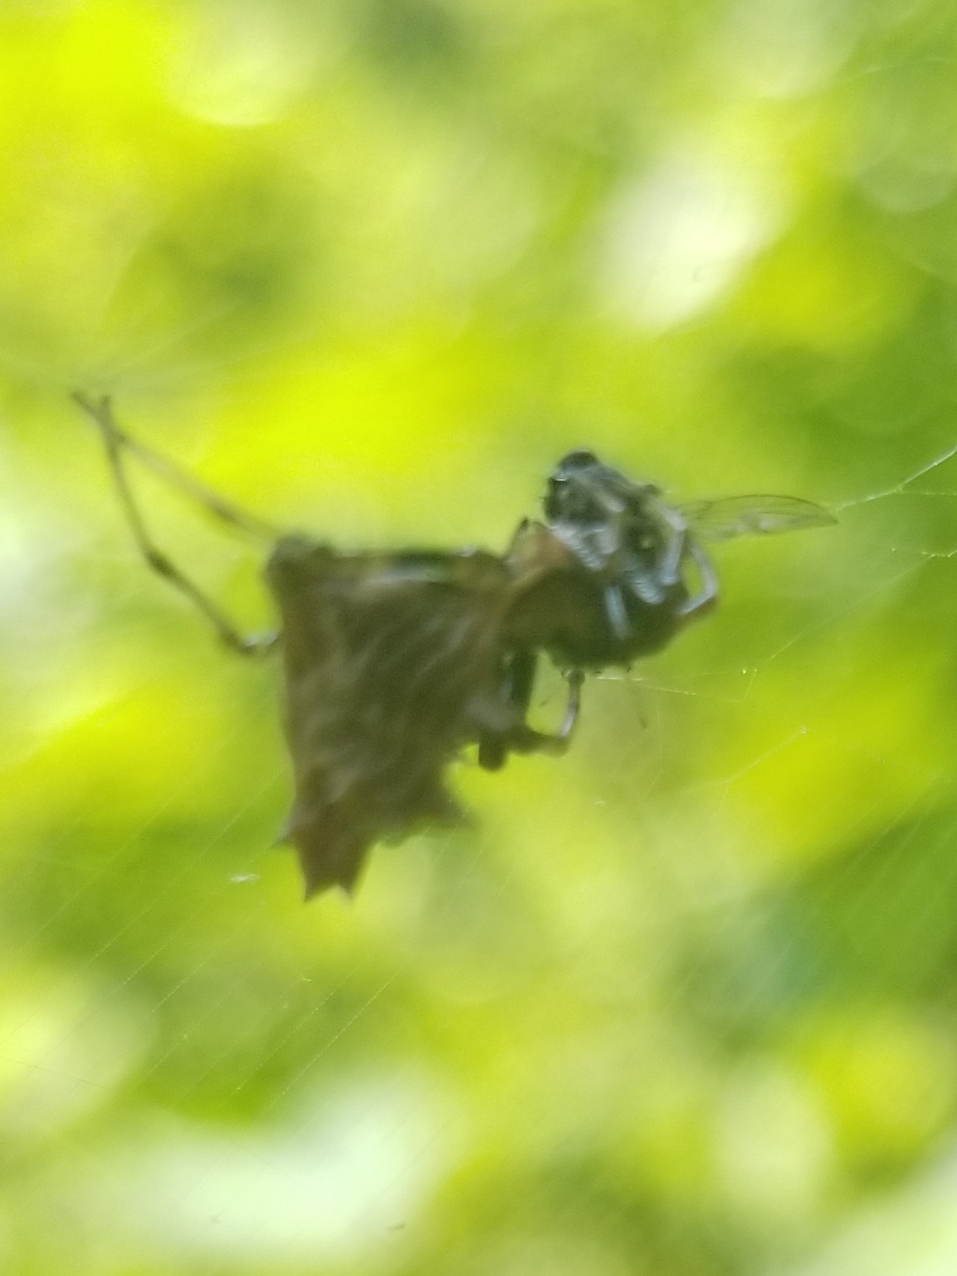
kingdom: Animalia
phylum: Arthropoda
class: Arachnida
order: Araneae
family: Araneidae
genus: Micrathena
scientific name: Micrathena gracilis
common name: Orb weavers
